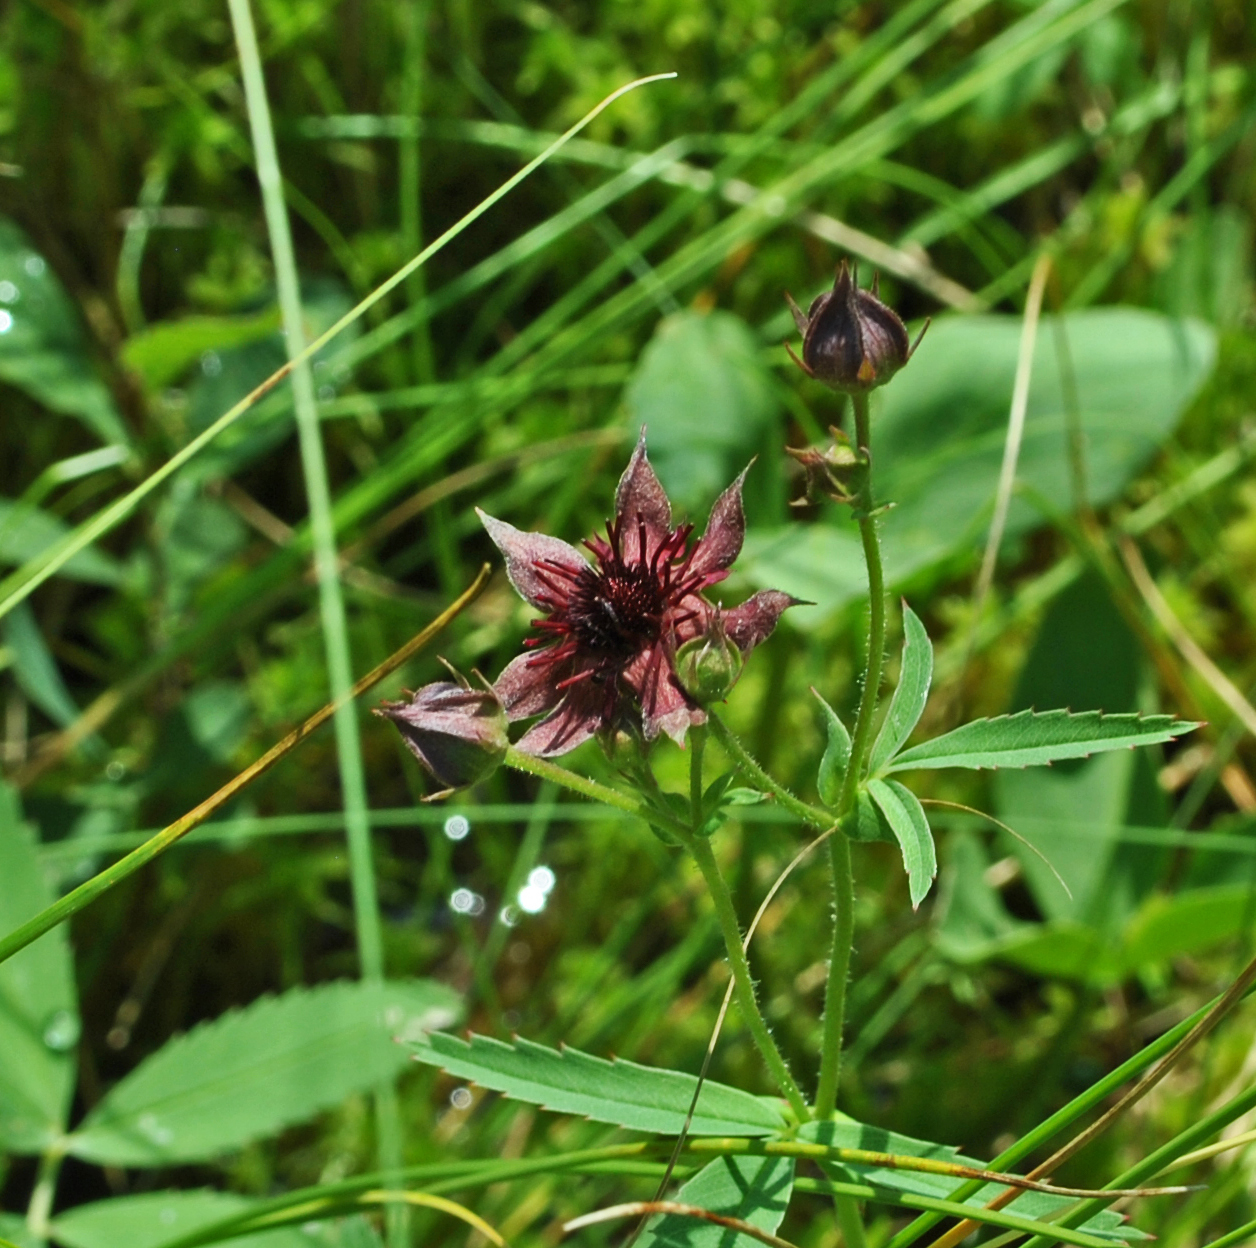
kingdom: Plantae
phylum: Tracheophyta
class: Magnoliopsida
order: Rosales
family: Rosaceae
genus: Comarum
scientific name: Comarum palustre
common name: Marsh cinquefoil
